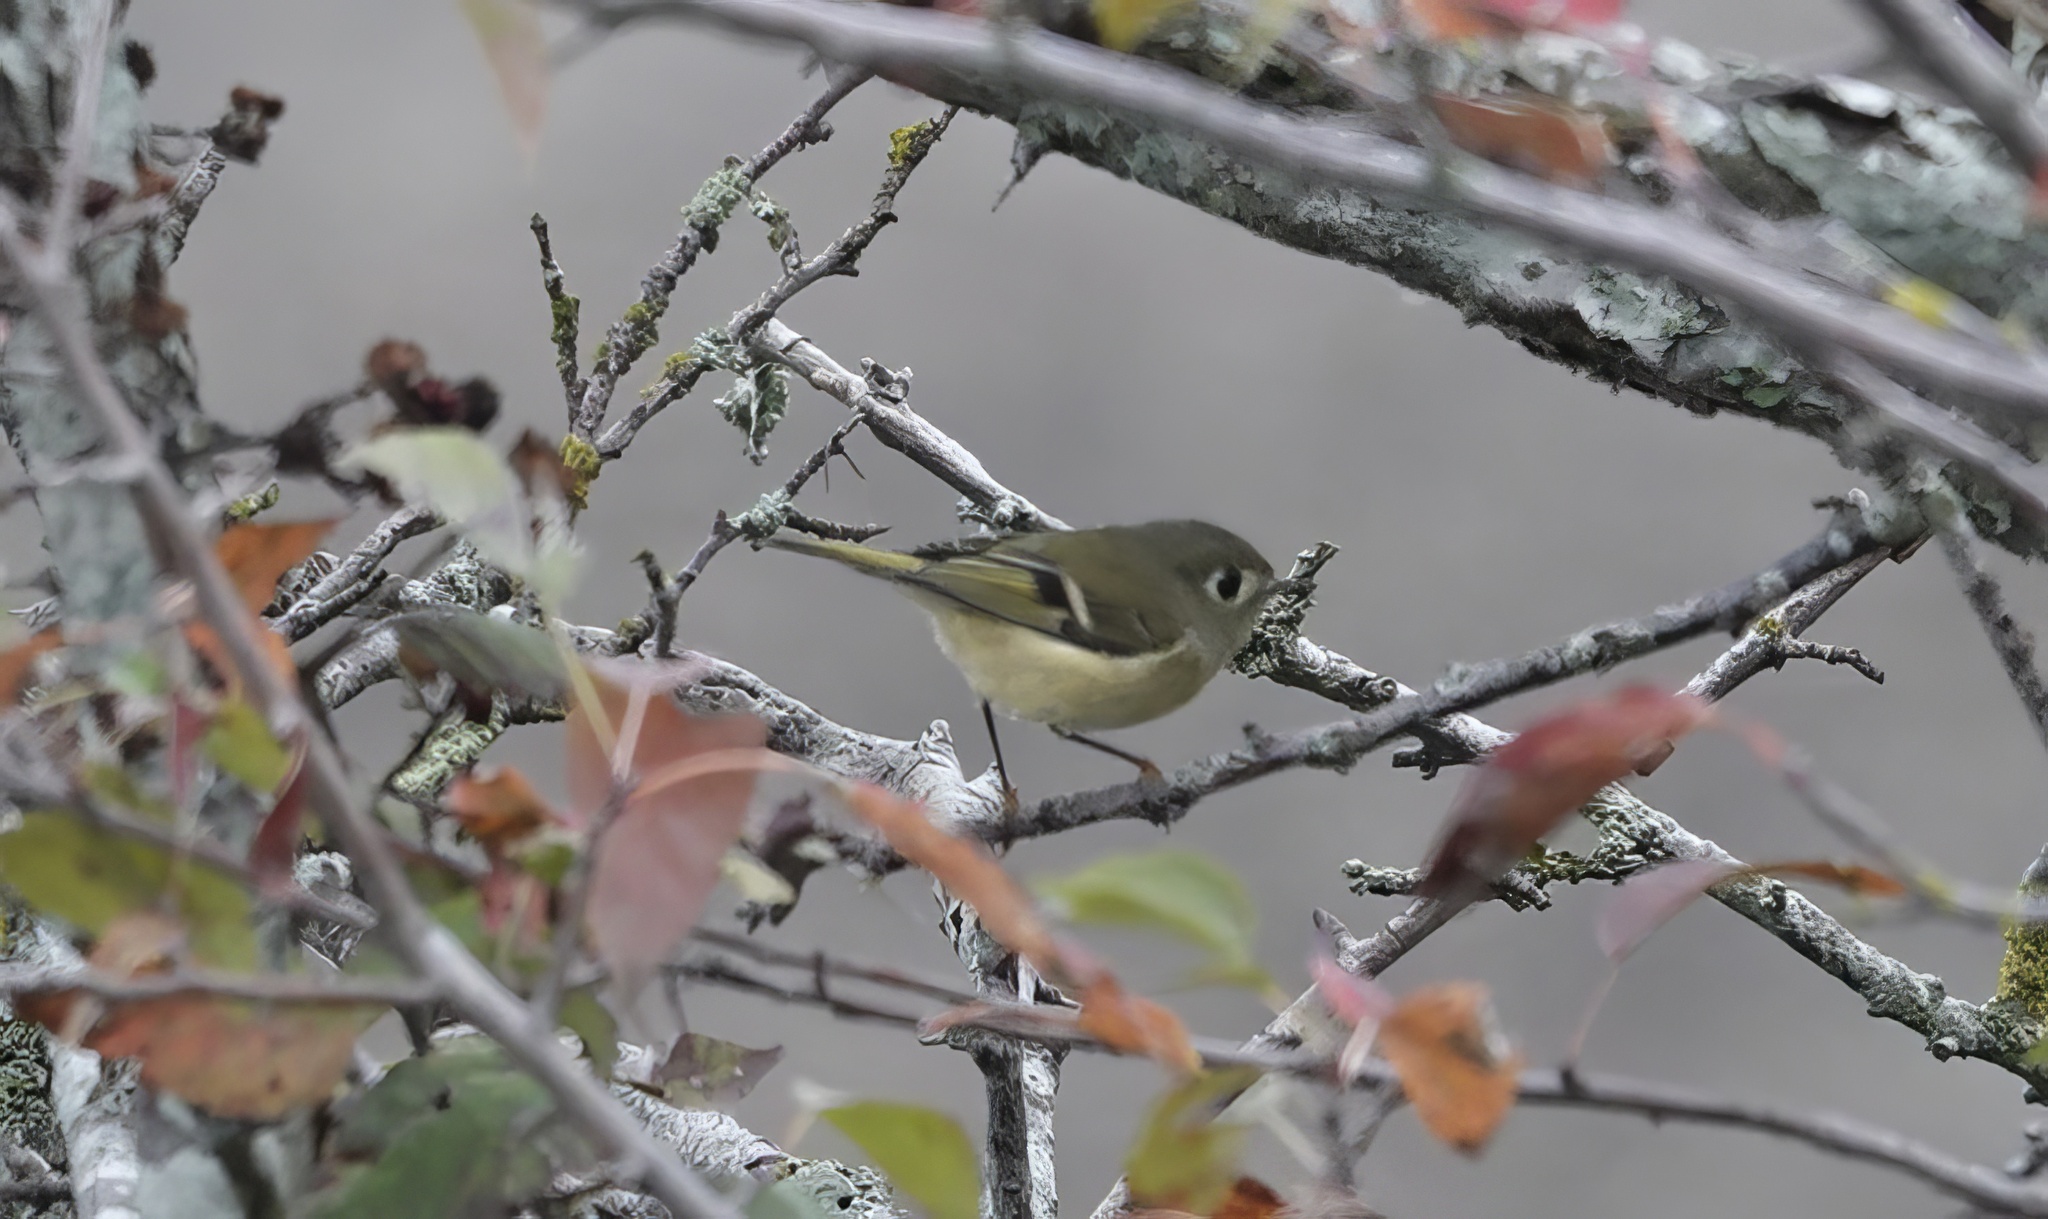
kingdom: Animalia
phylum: Chordata
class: Aves
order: Passeriformes
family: Regulidae
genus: Regulus
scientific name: Regulus calendula
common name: Ruby-crowned kinglet
